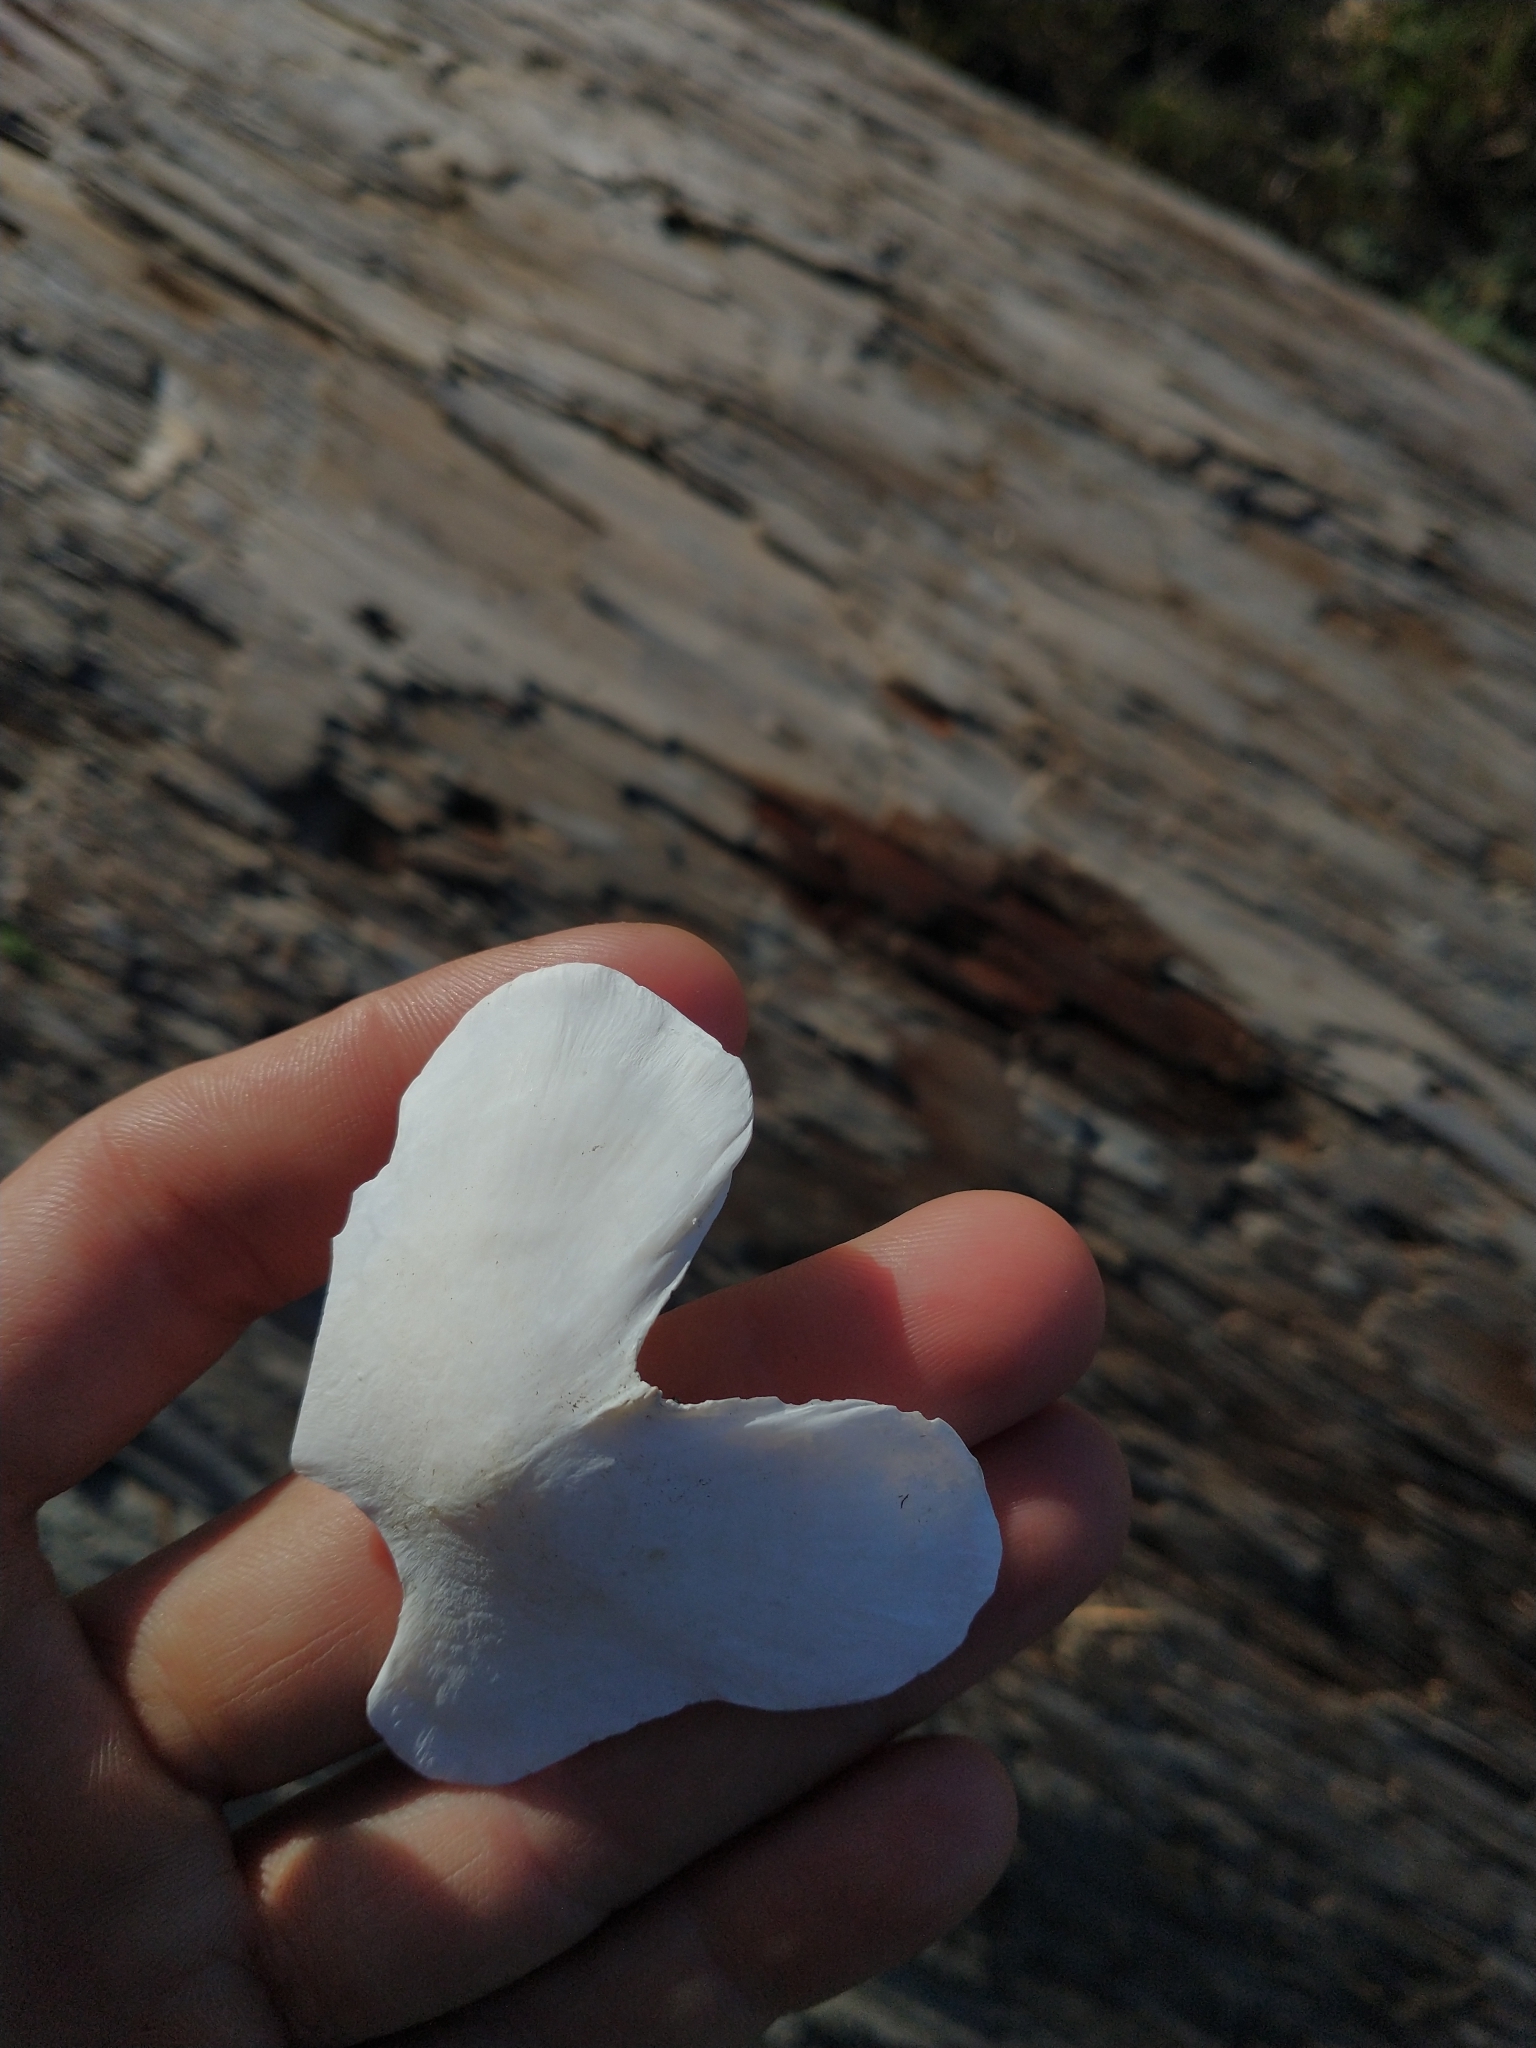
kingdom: Animalia
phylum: Mollusca
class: Polyplacophora
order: Chitonida
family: Acanthochitonidae
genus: Cryptochiton
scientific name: Cryptochiton stelleri
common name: Giant pacific chiton
